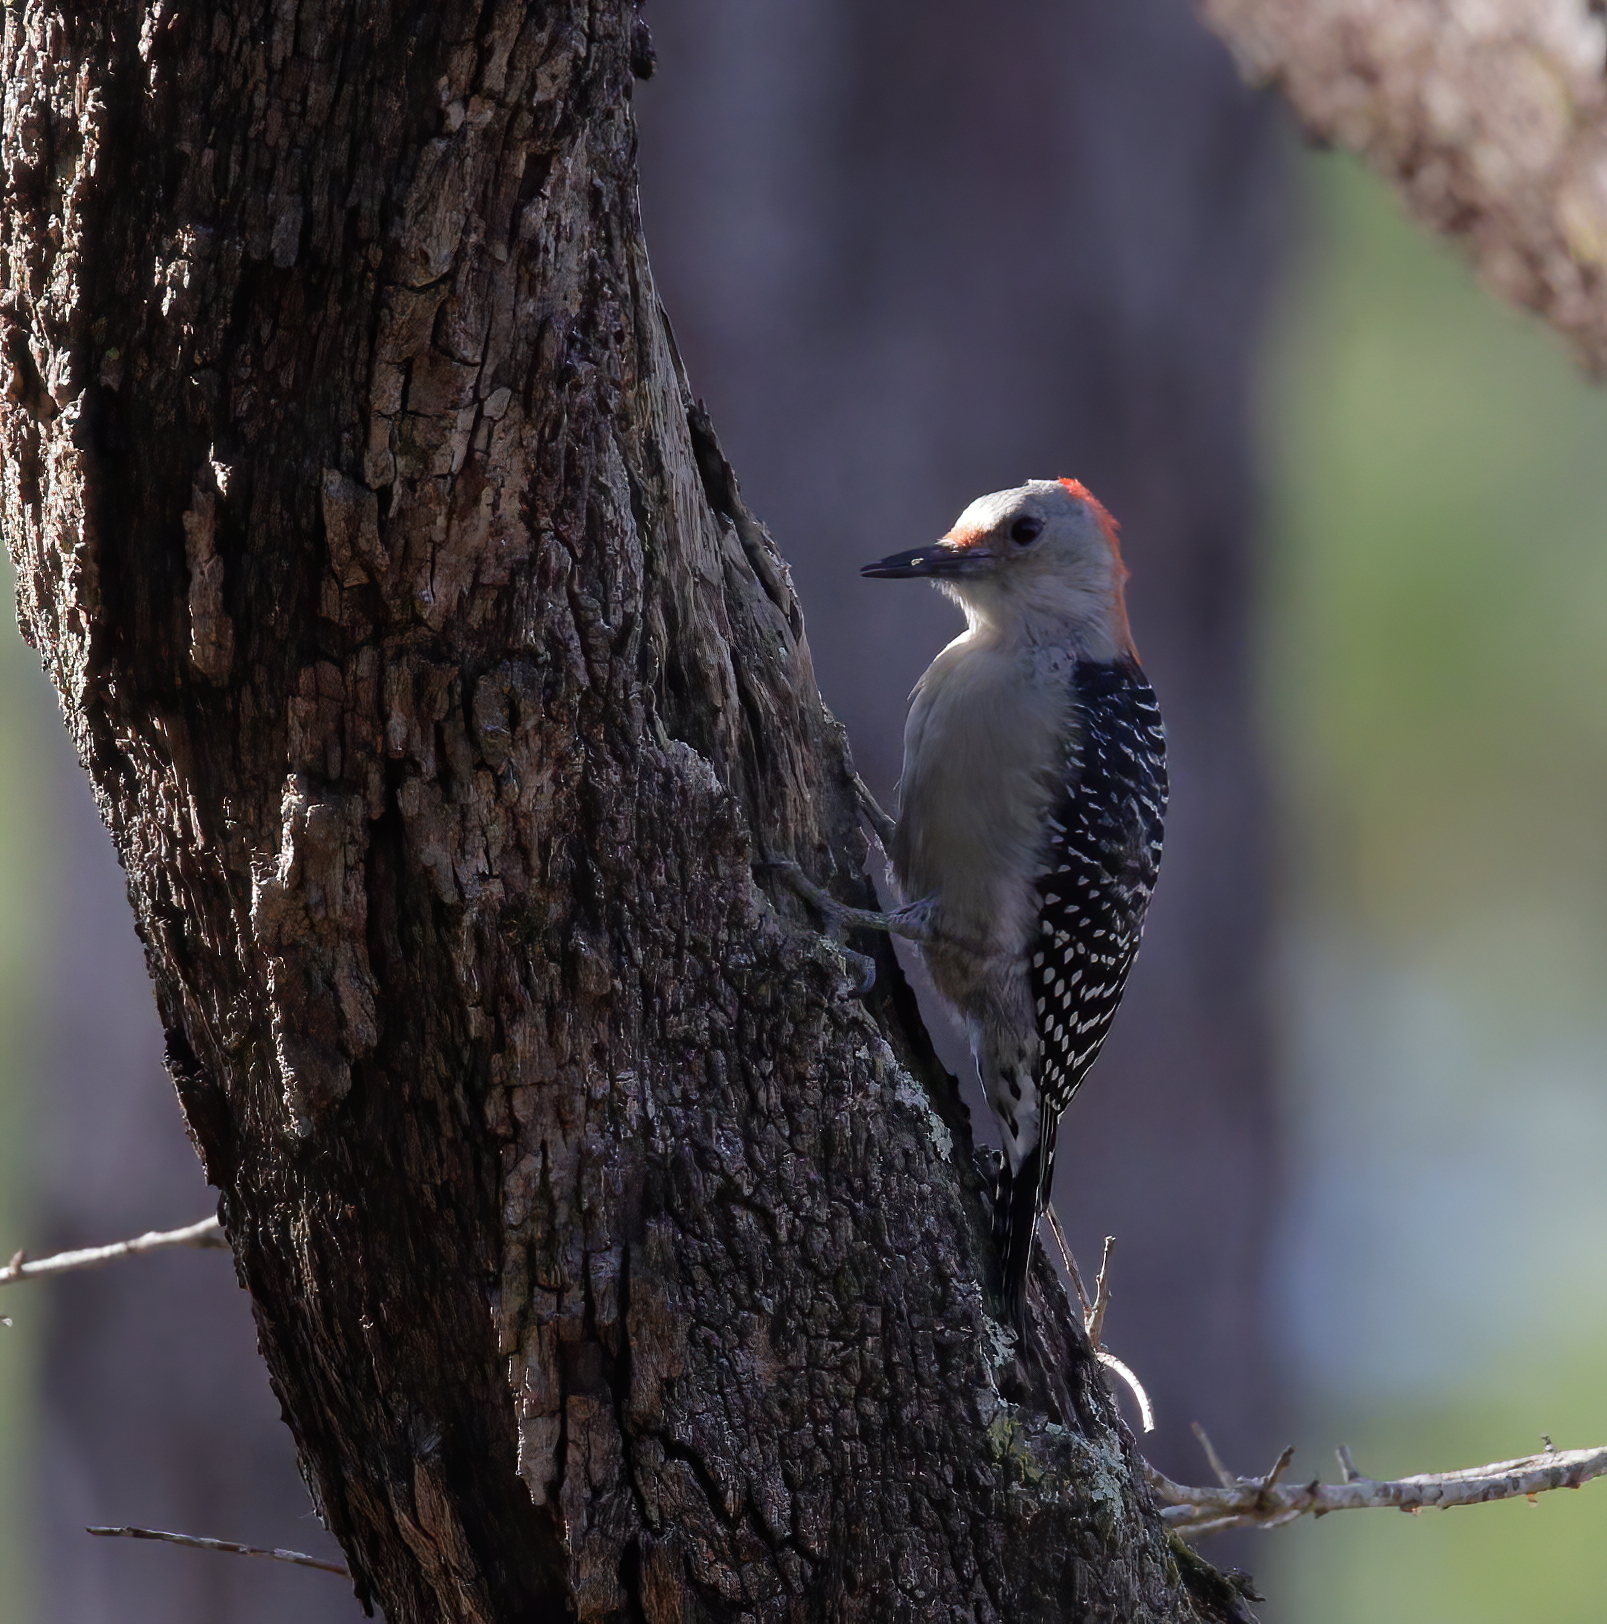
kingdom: Animalia
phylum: Chordata
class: Aves
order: Piciformes
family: Picidae
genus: Melanerpes
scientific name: Melanerpes carolinus
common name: Red-bellied woodpecker
